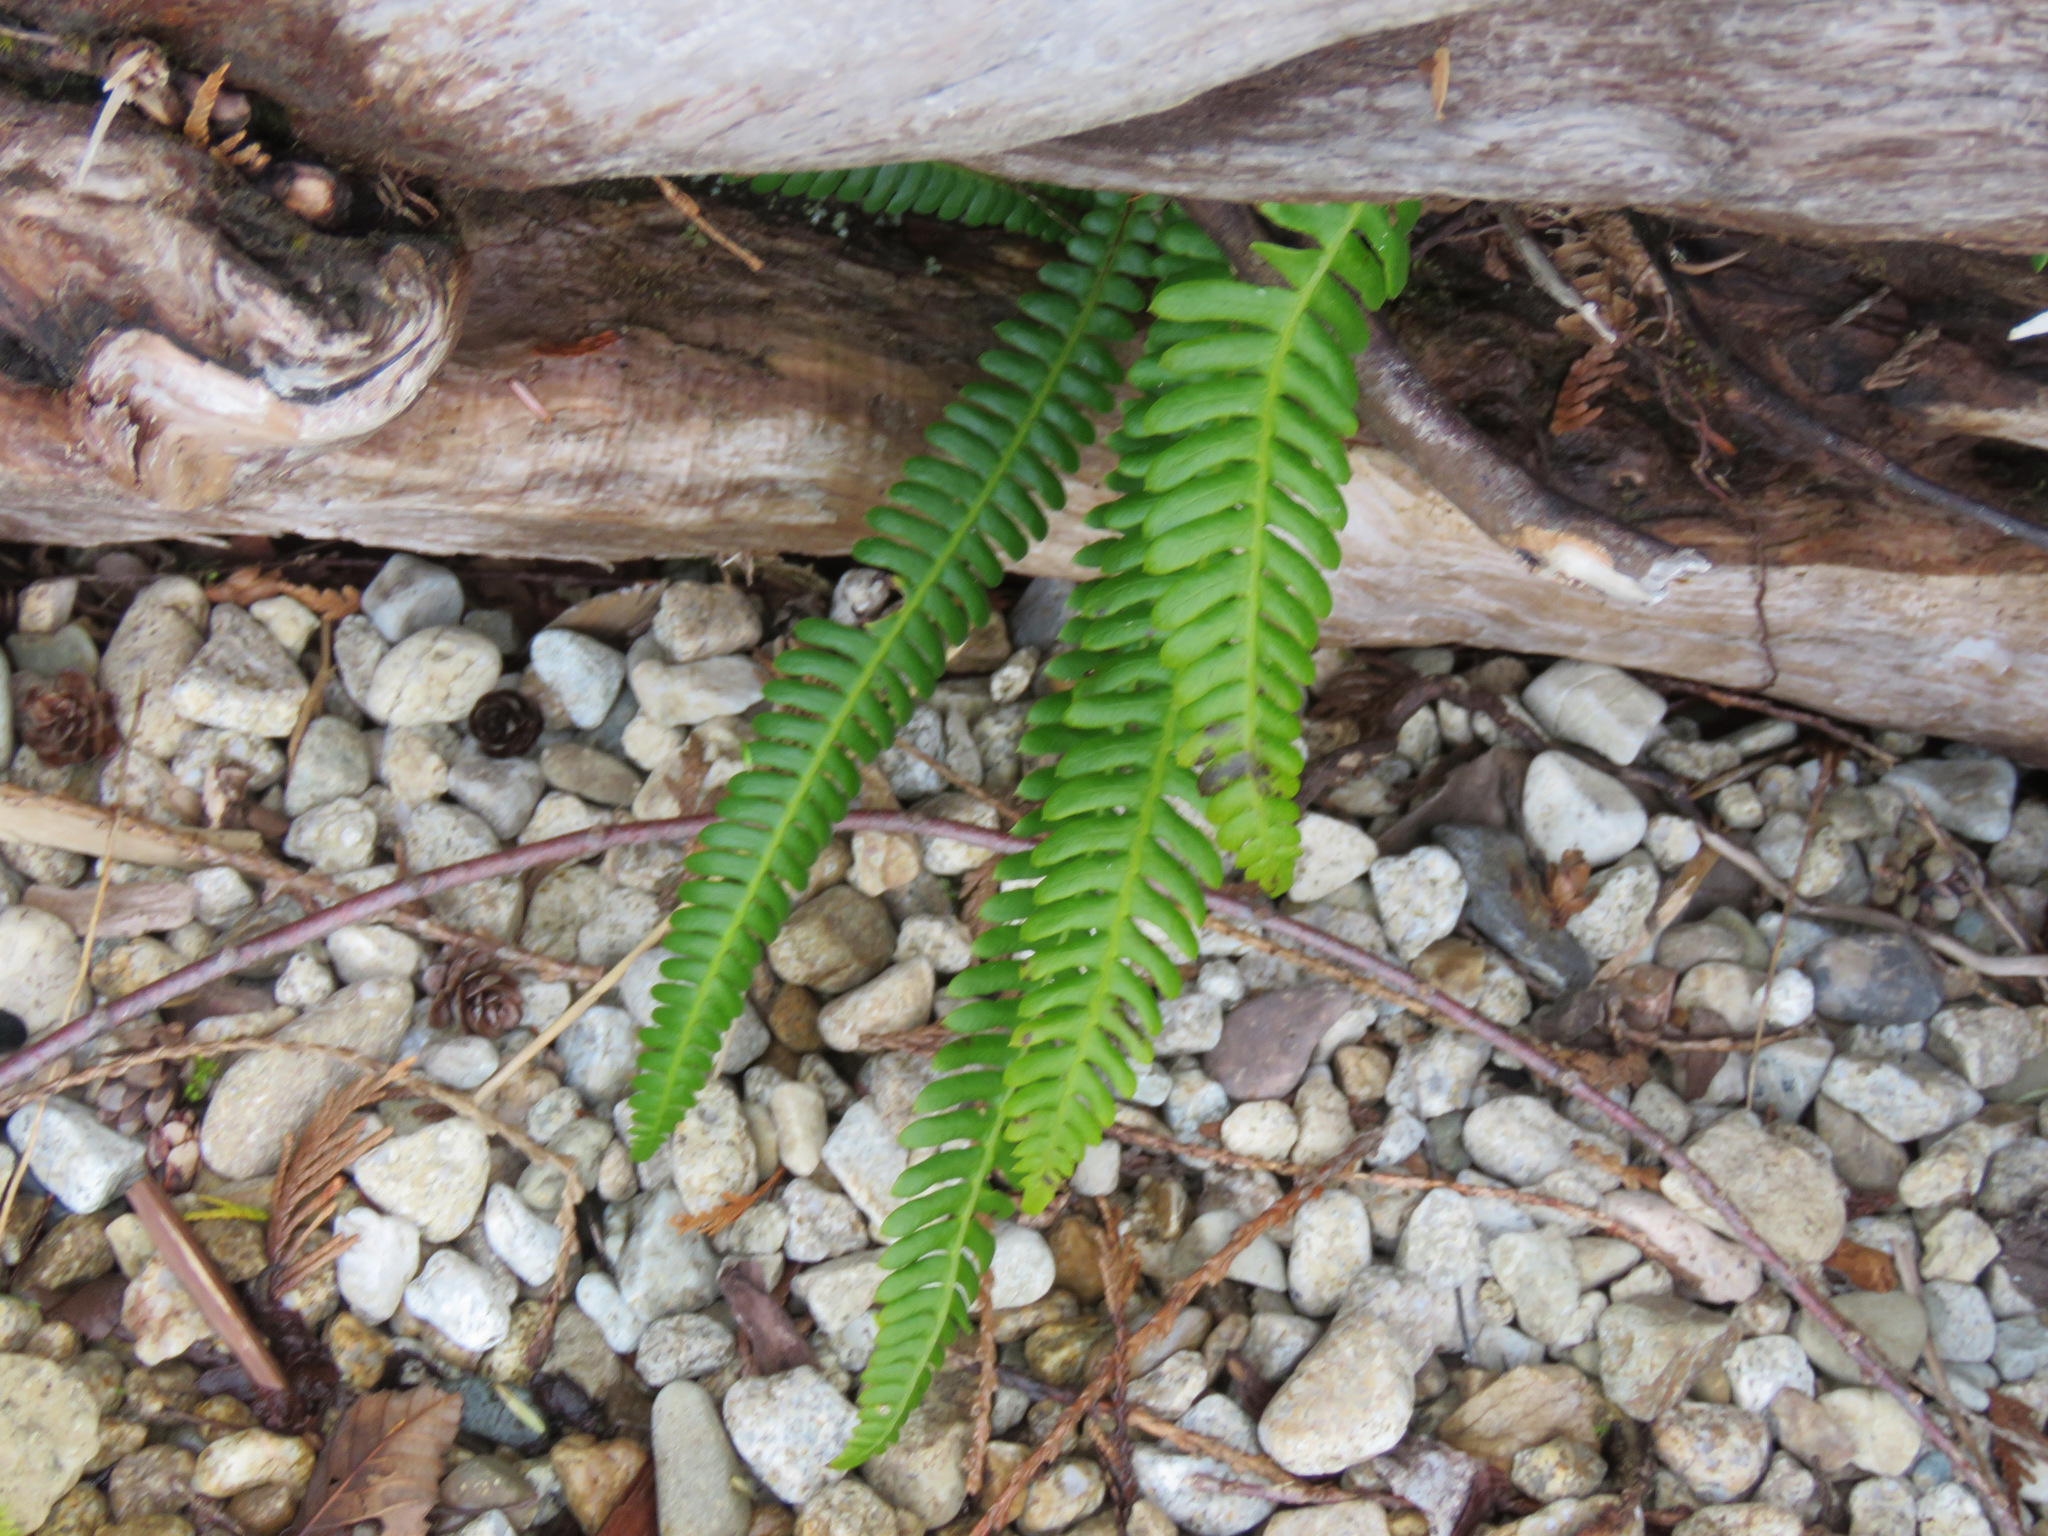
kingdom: Plantae
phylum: Tracheophyta
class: Polypodiopsida
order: Polypodiales
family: Blechnaceae
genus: Struthiopteris
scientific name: Struthiopteris spicant
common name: Deer fern
